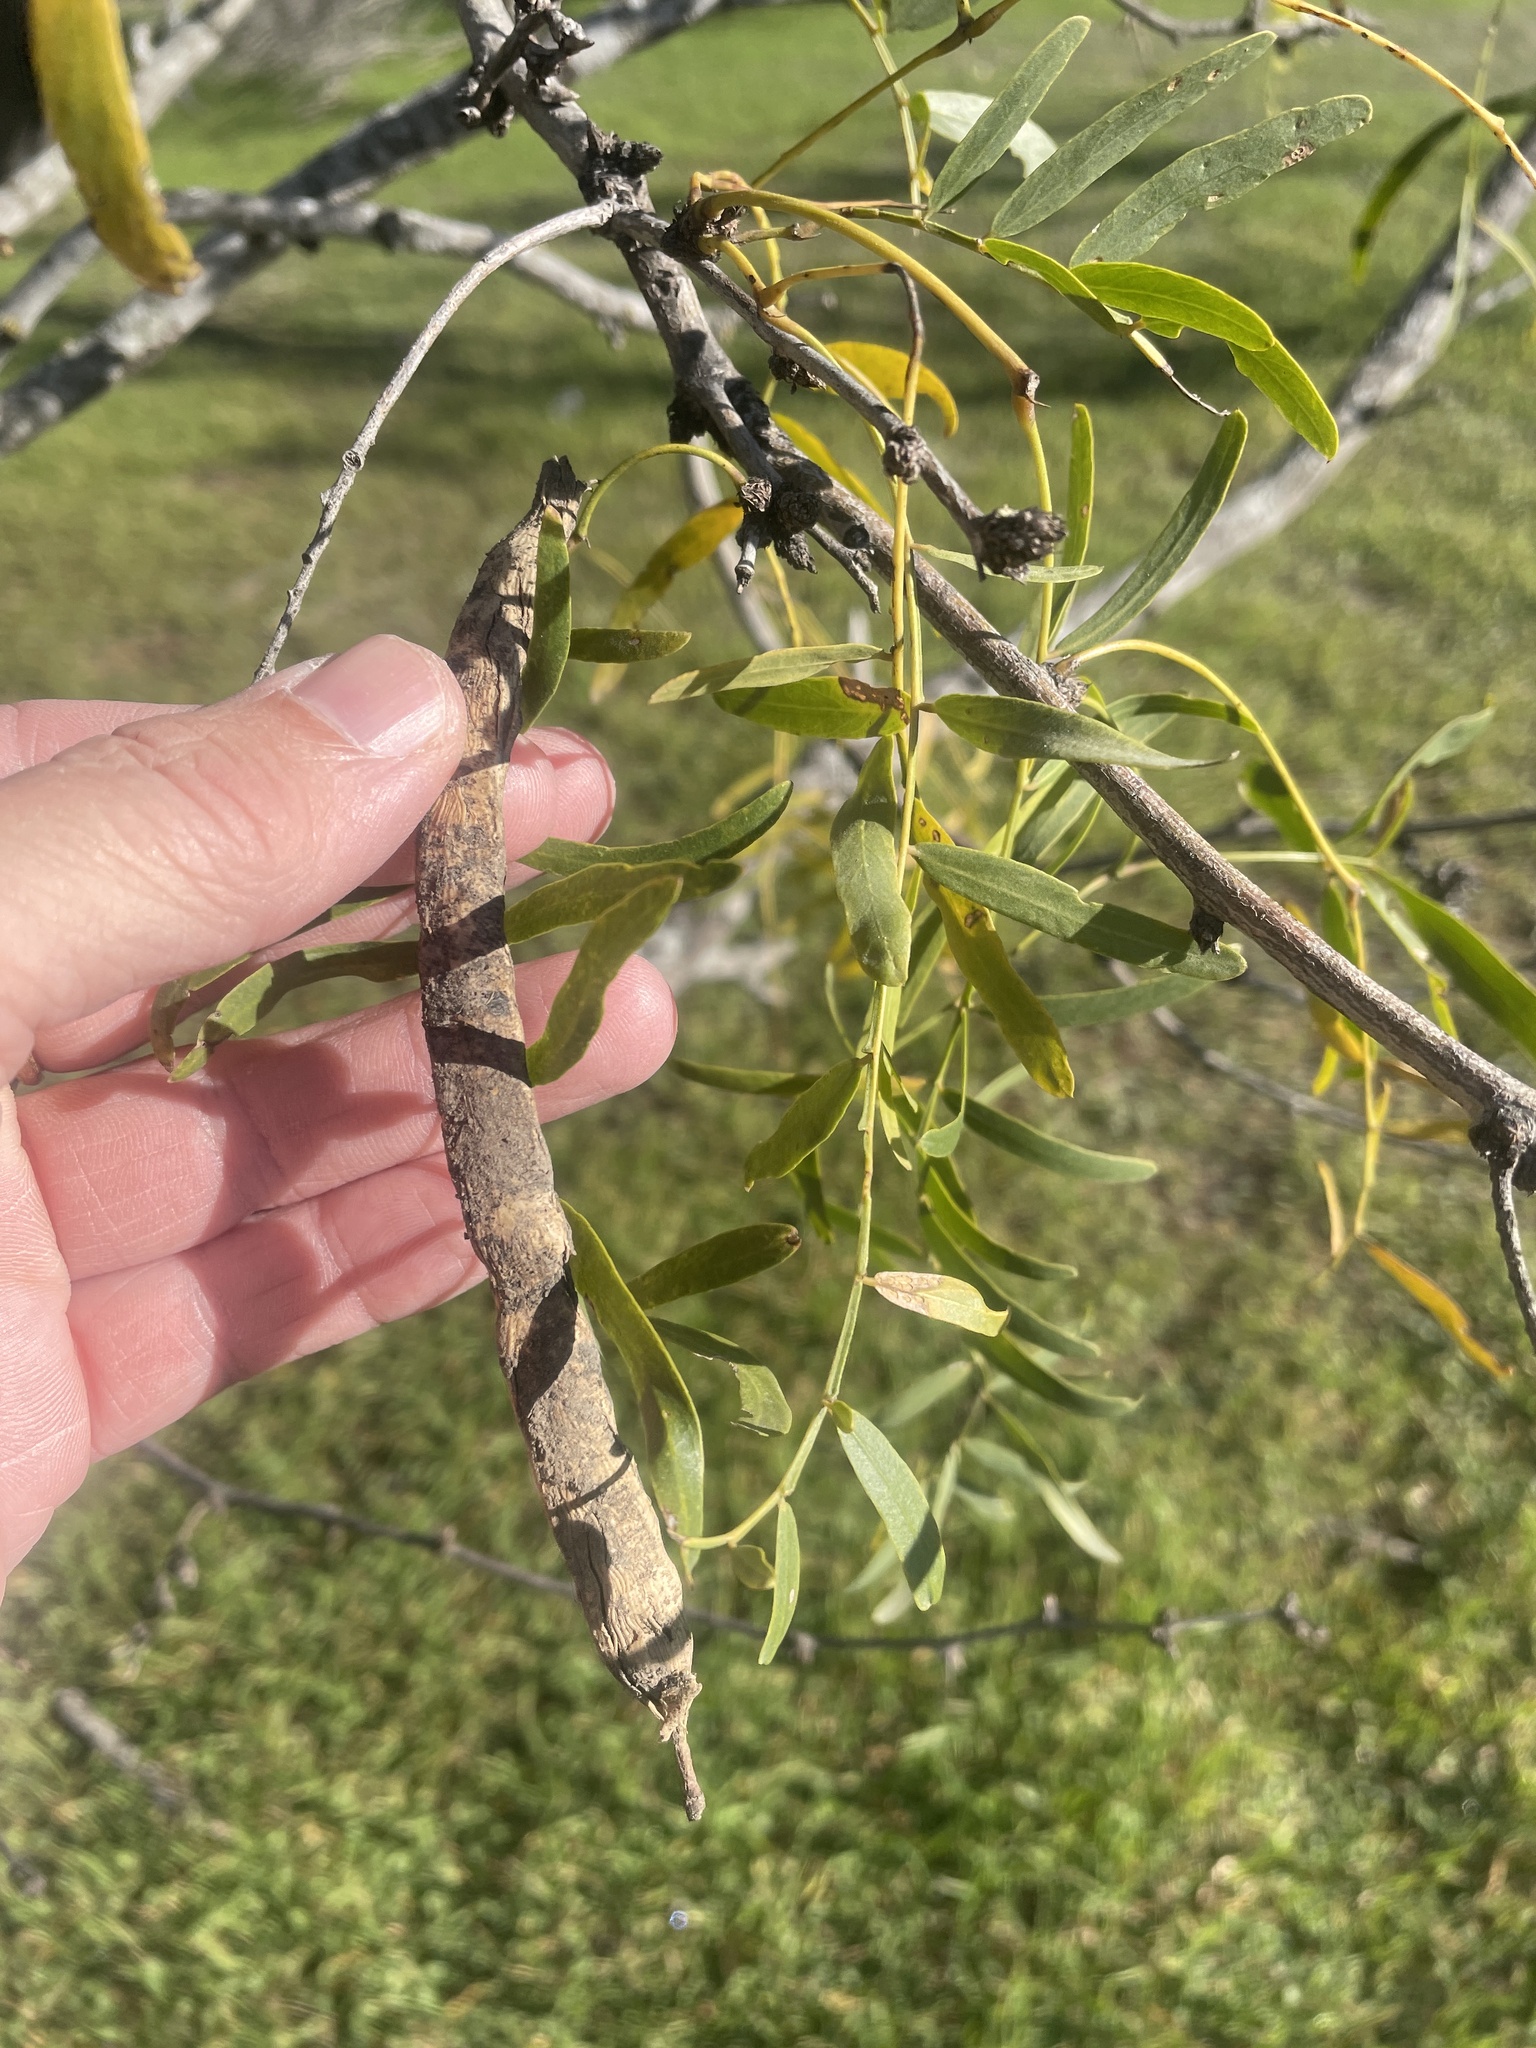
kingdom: Plantae
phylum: Tracheophyta
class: Magnoliopsida
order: Fabales
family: Fabaceae
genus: Prosopis
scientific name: Prosopis glandulosa
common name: Honey mesquite
